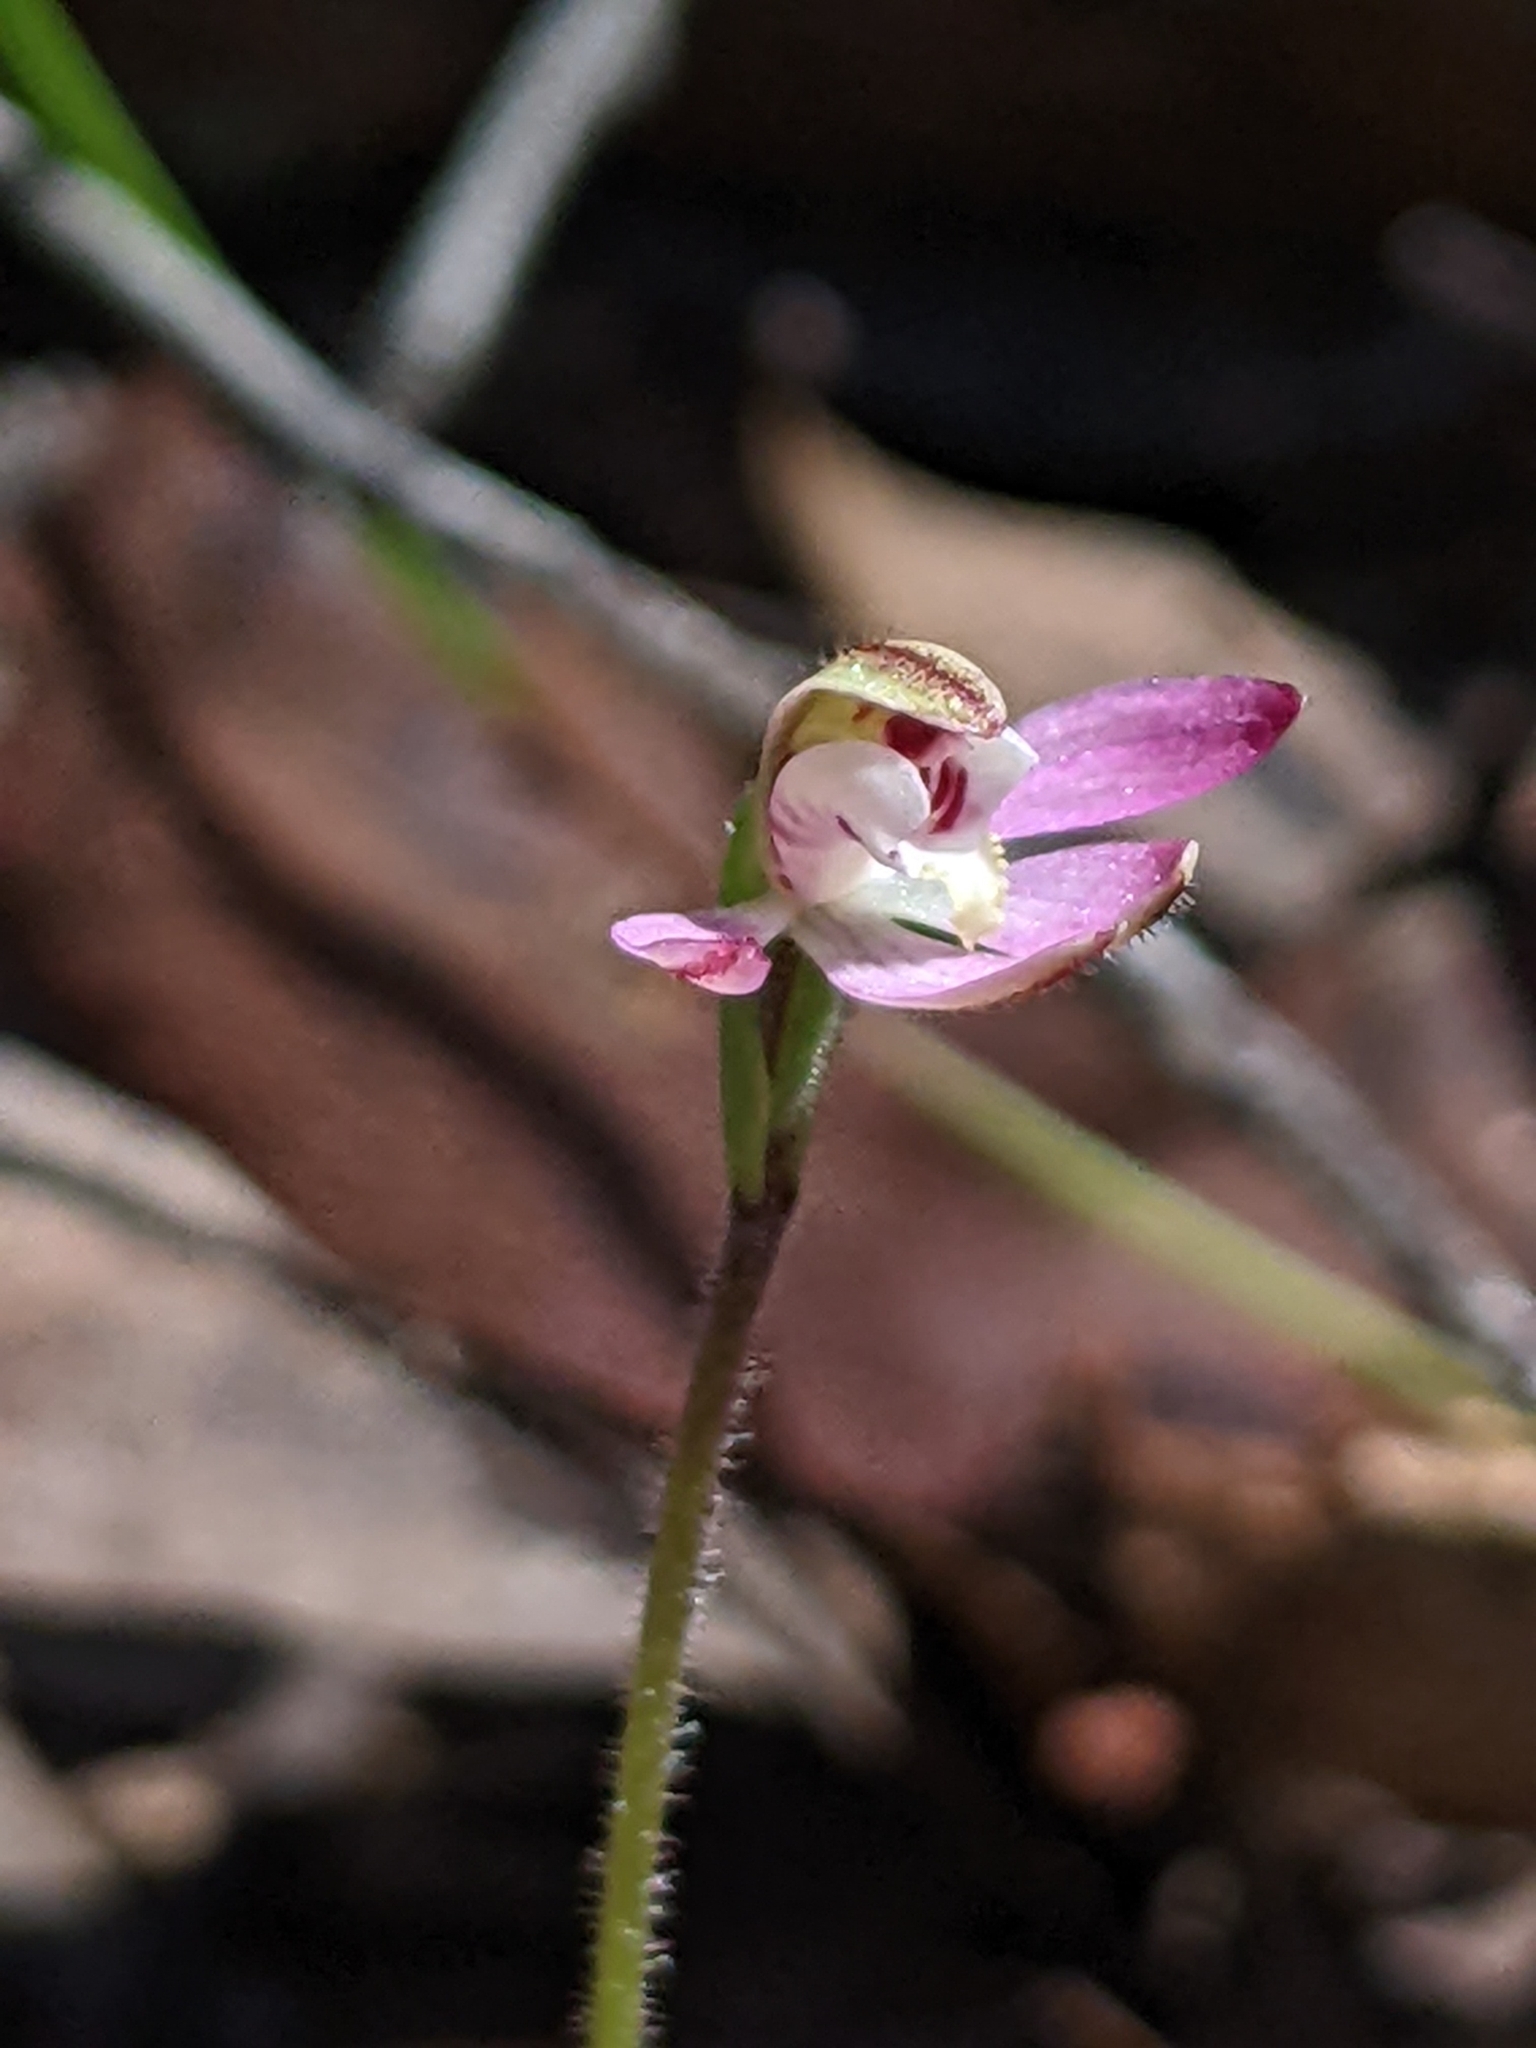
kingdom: Plantae
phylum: Tracheophyta
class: Liliopsida
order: Asparagales
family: Orchidaceae
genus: Caladenia
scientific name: Caladenia pusilla
